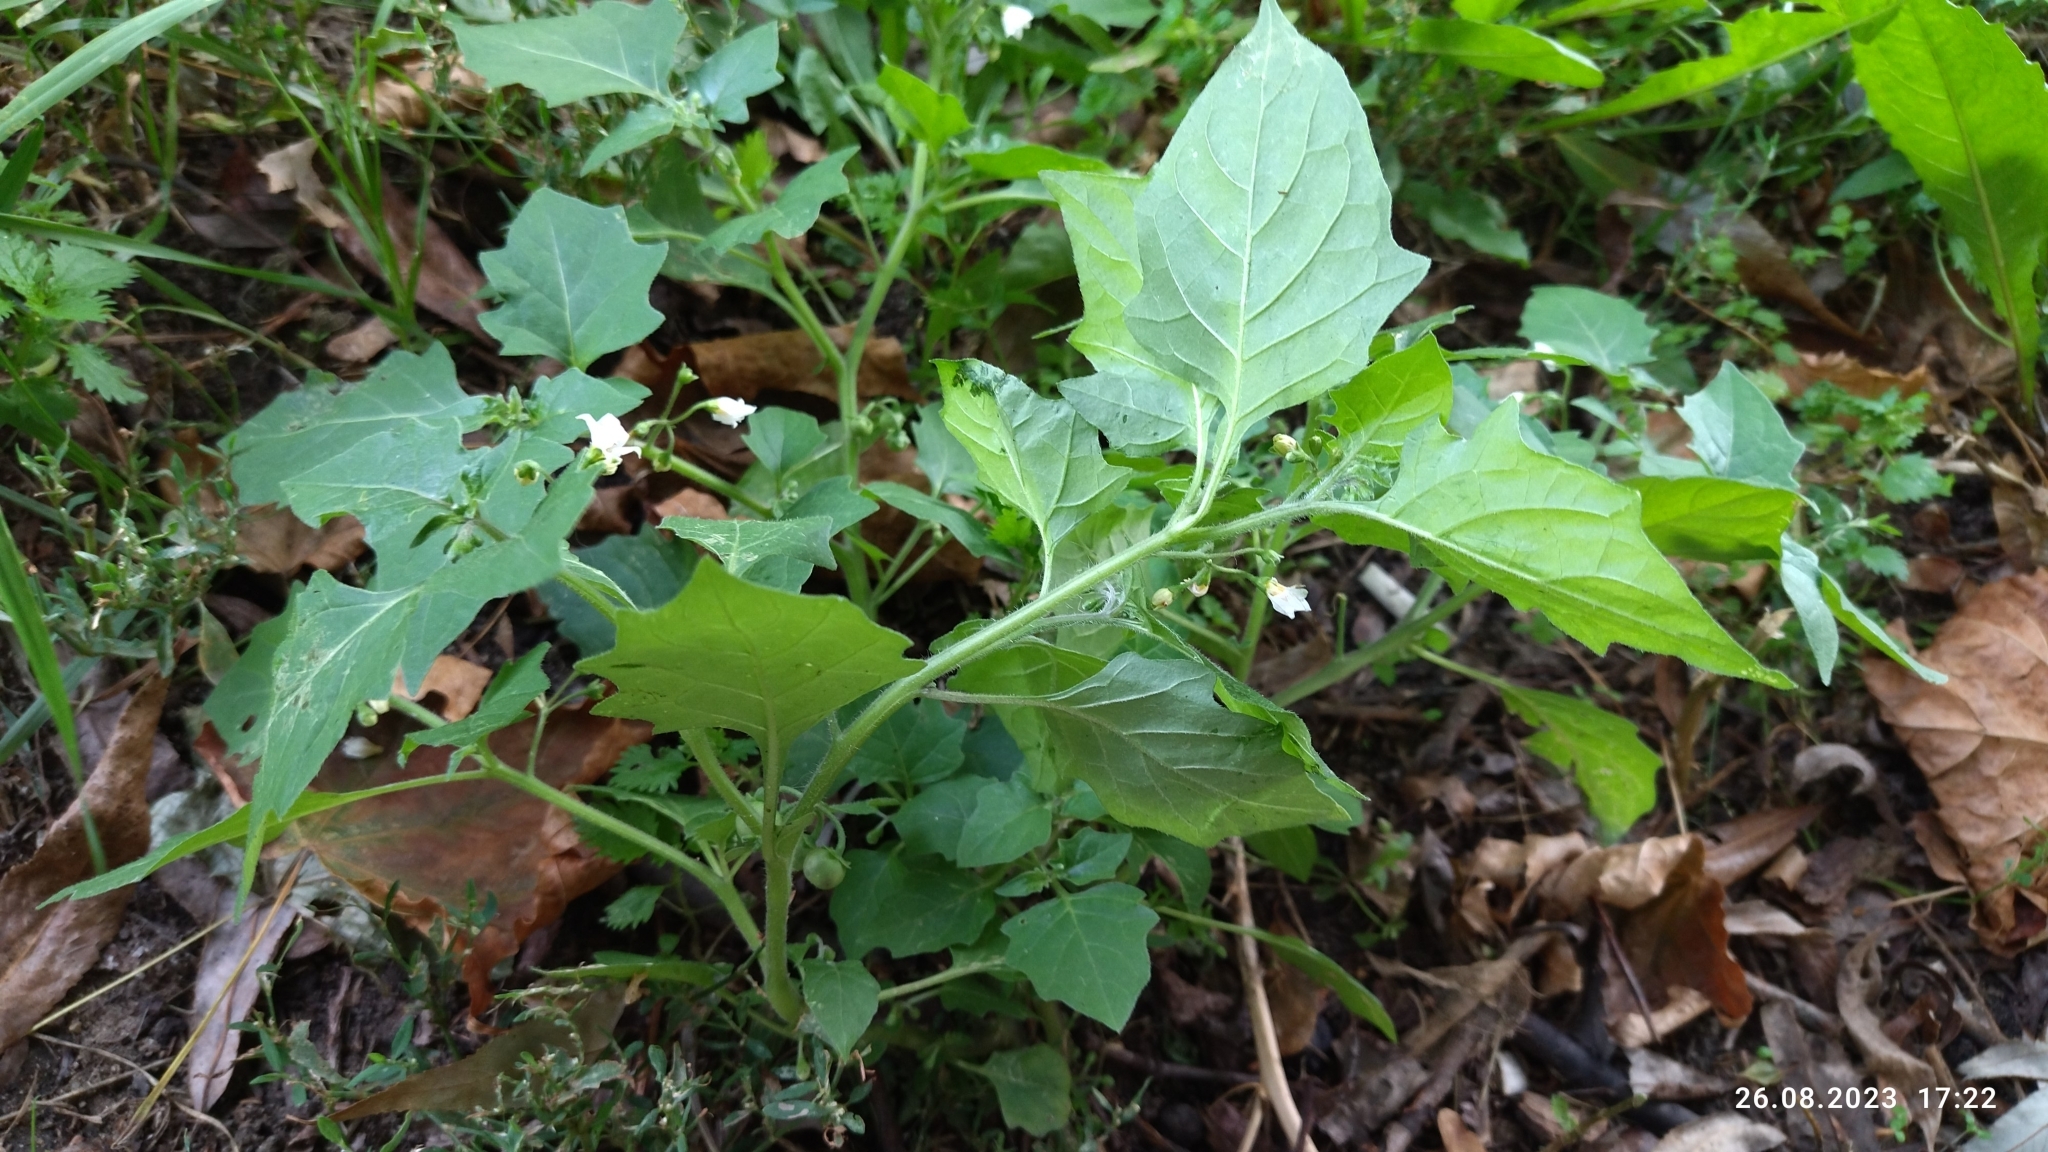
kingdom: Plantae
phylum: Tracheophyta
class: Magnoliopsida
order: Solanales
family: Solanaceae
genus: Solanum
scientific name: Solanum nigrum
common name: Black nightshade
